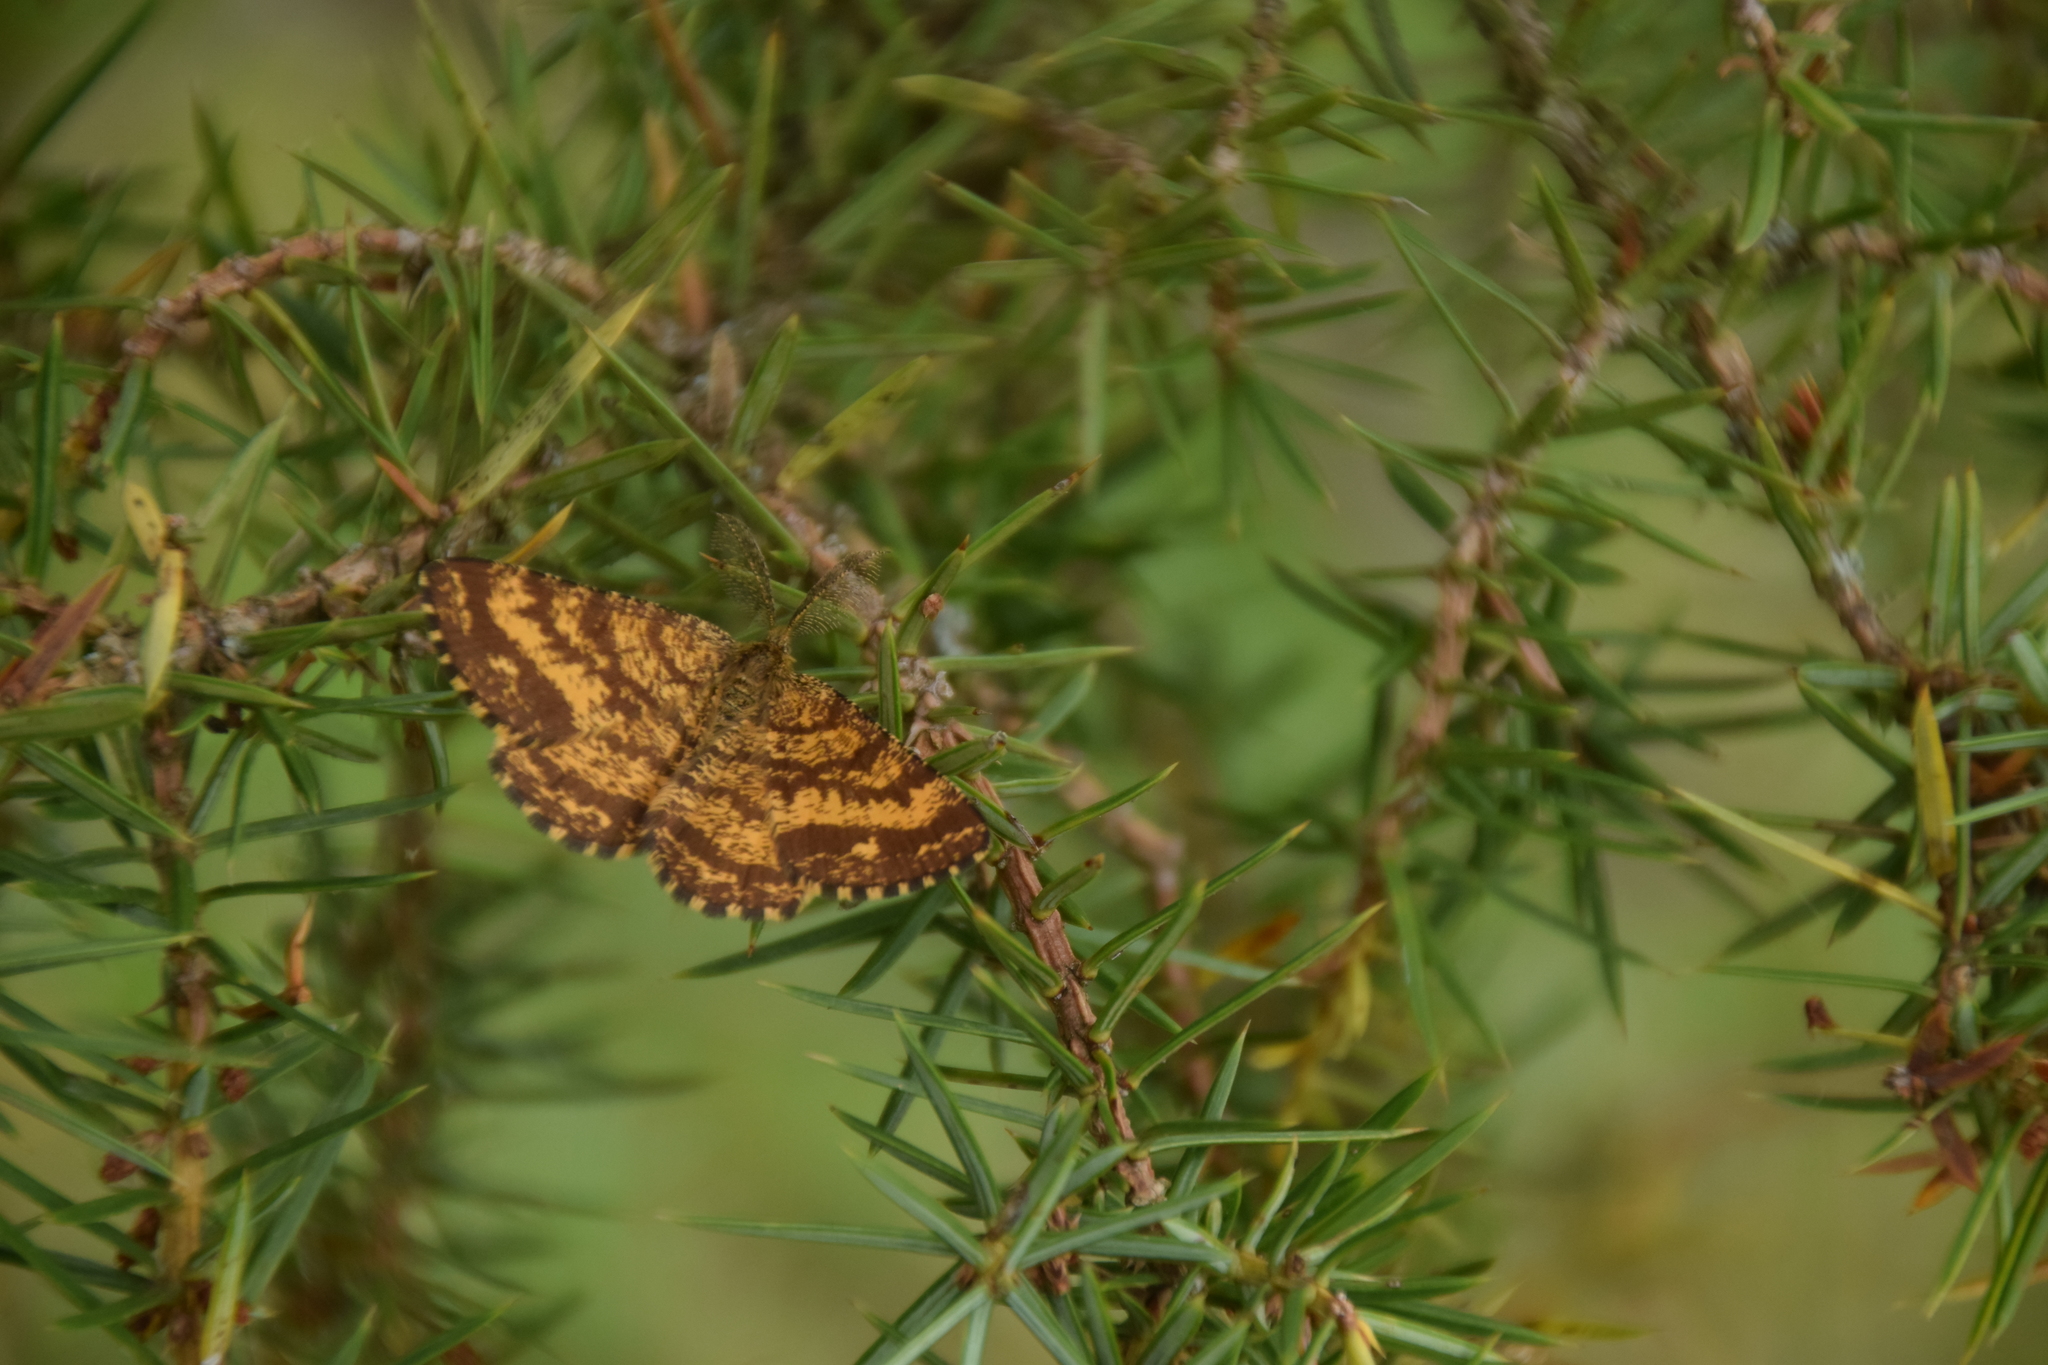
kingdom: Animalia
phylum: Arthropoda
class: Insecta
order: Lepidoptera
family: Geometridae
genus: Ematurga
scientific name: Ematurga atomaria
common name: Common heath
